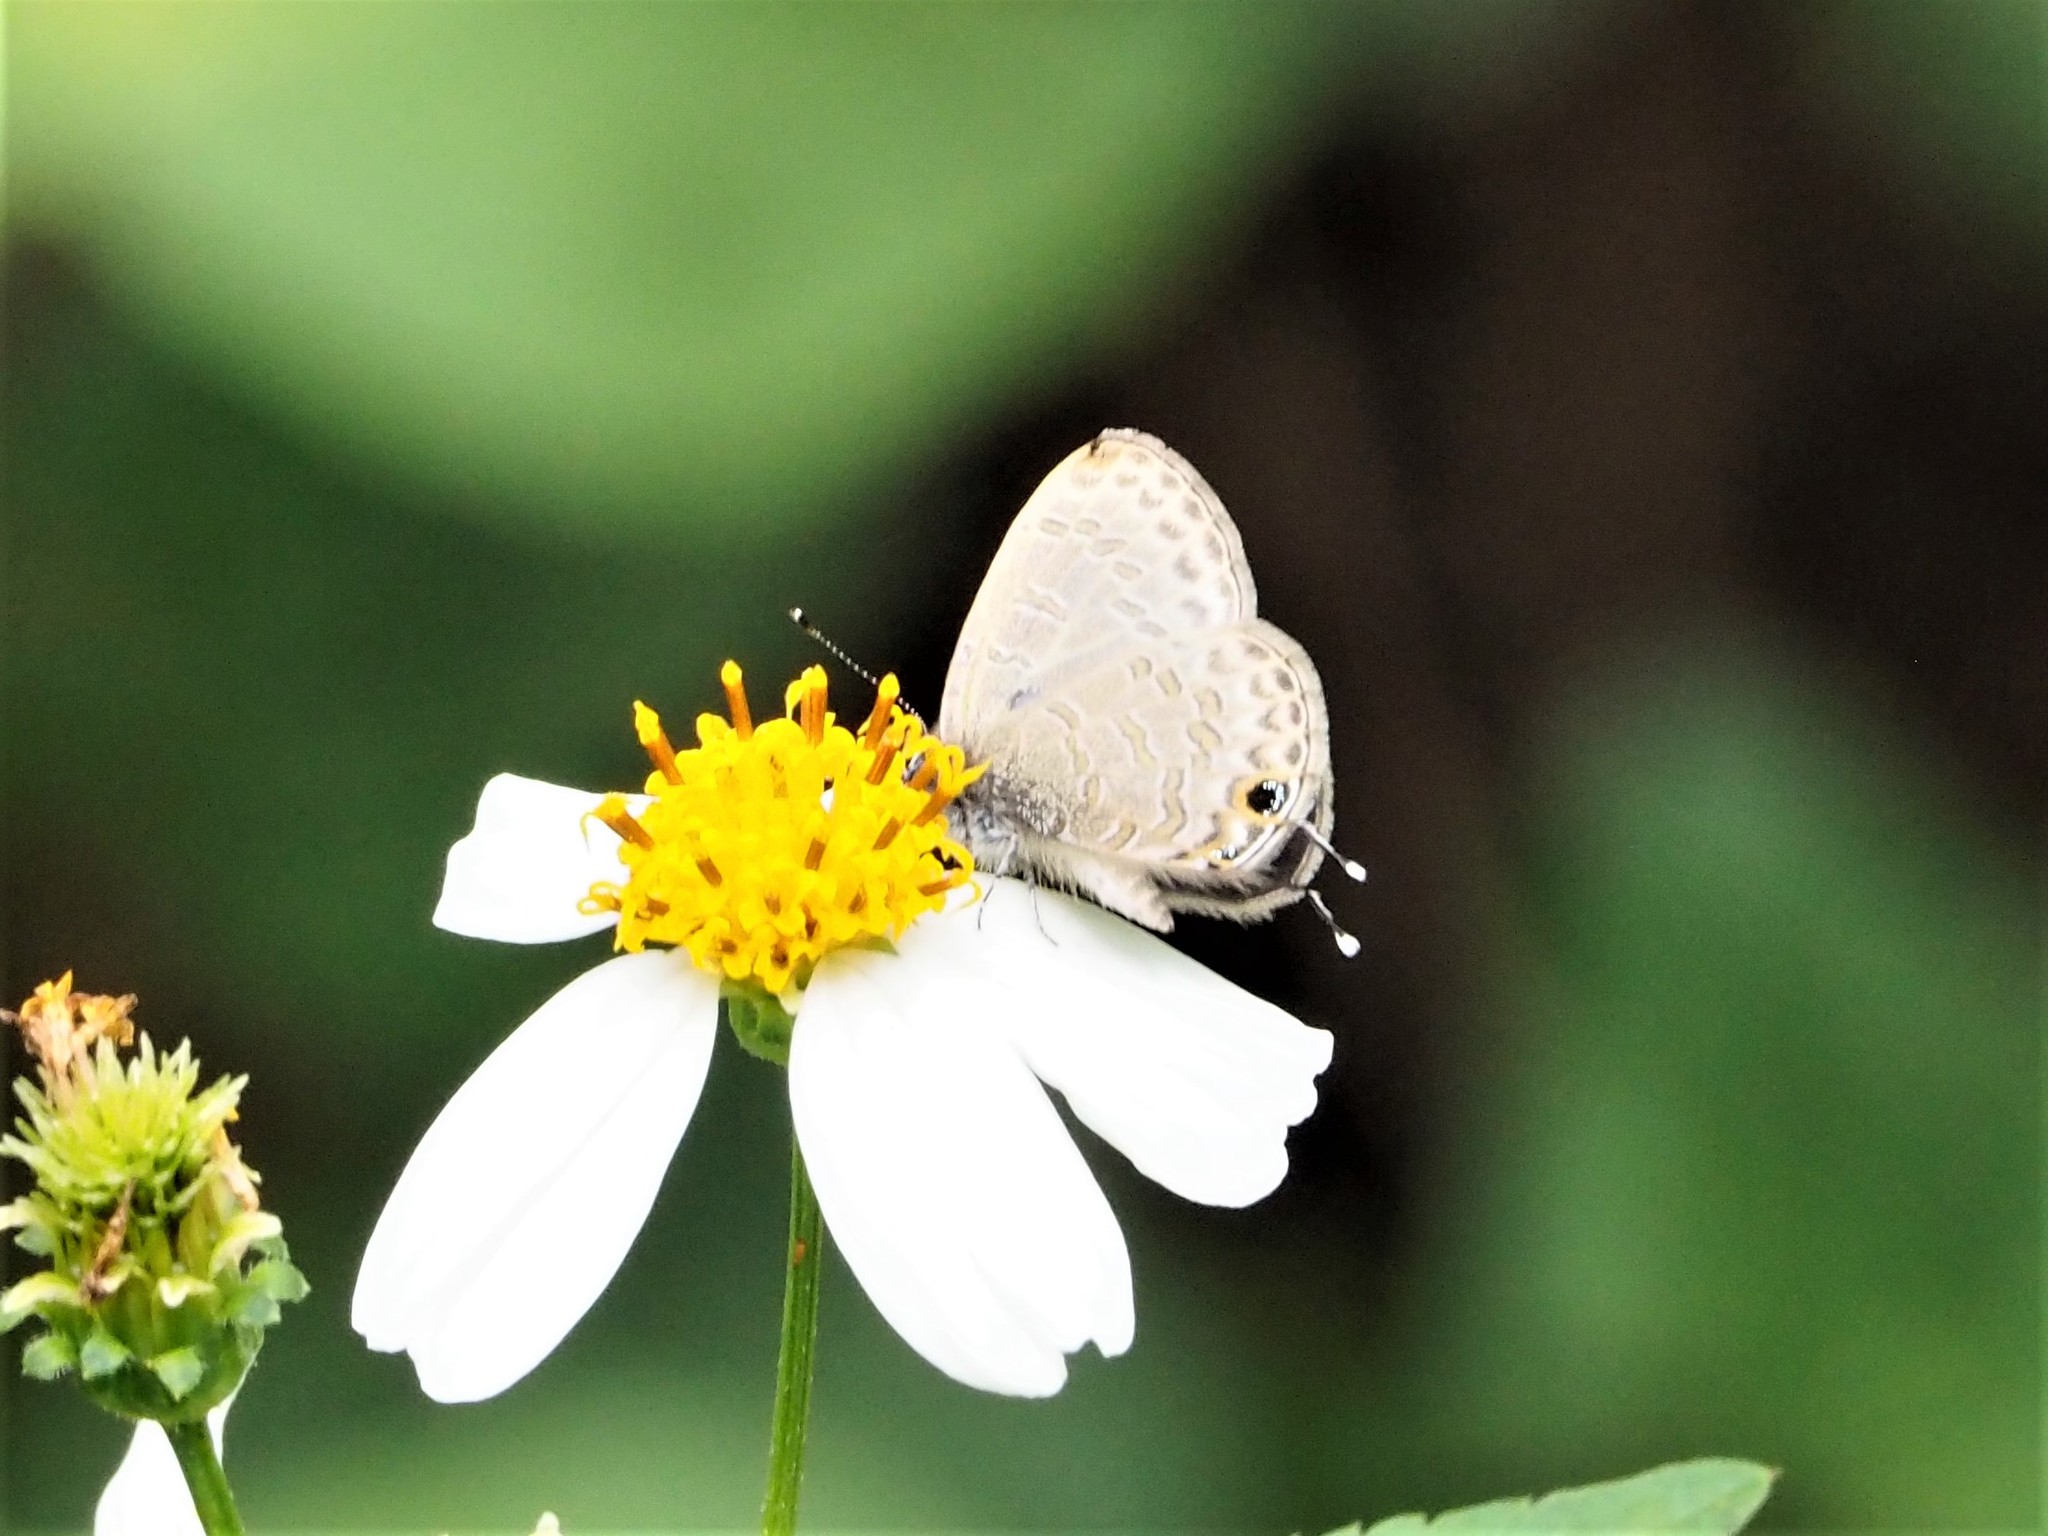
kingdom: Animalia
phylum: Arthropoda
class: Insecta
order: Lepidoptera
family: Lycaenidae
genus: Prosotas
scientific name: Prosotas nora
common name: Common line blue
